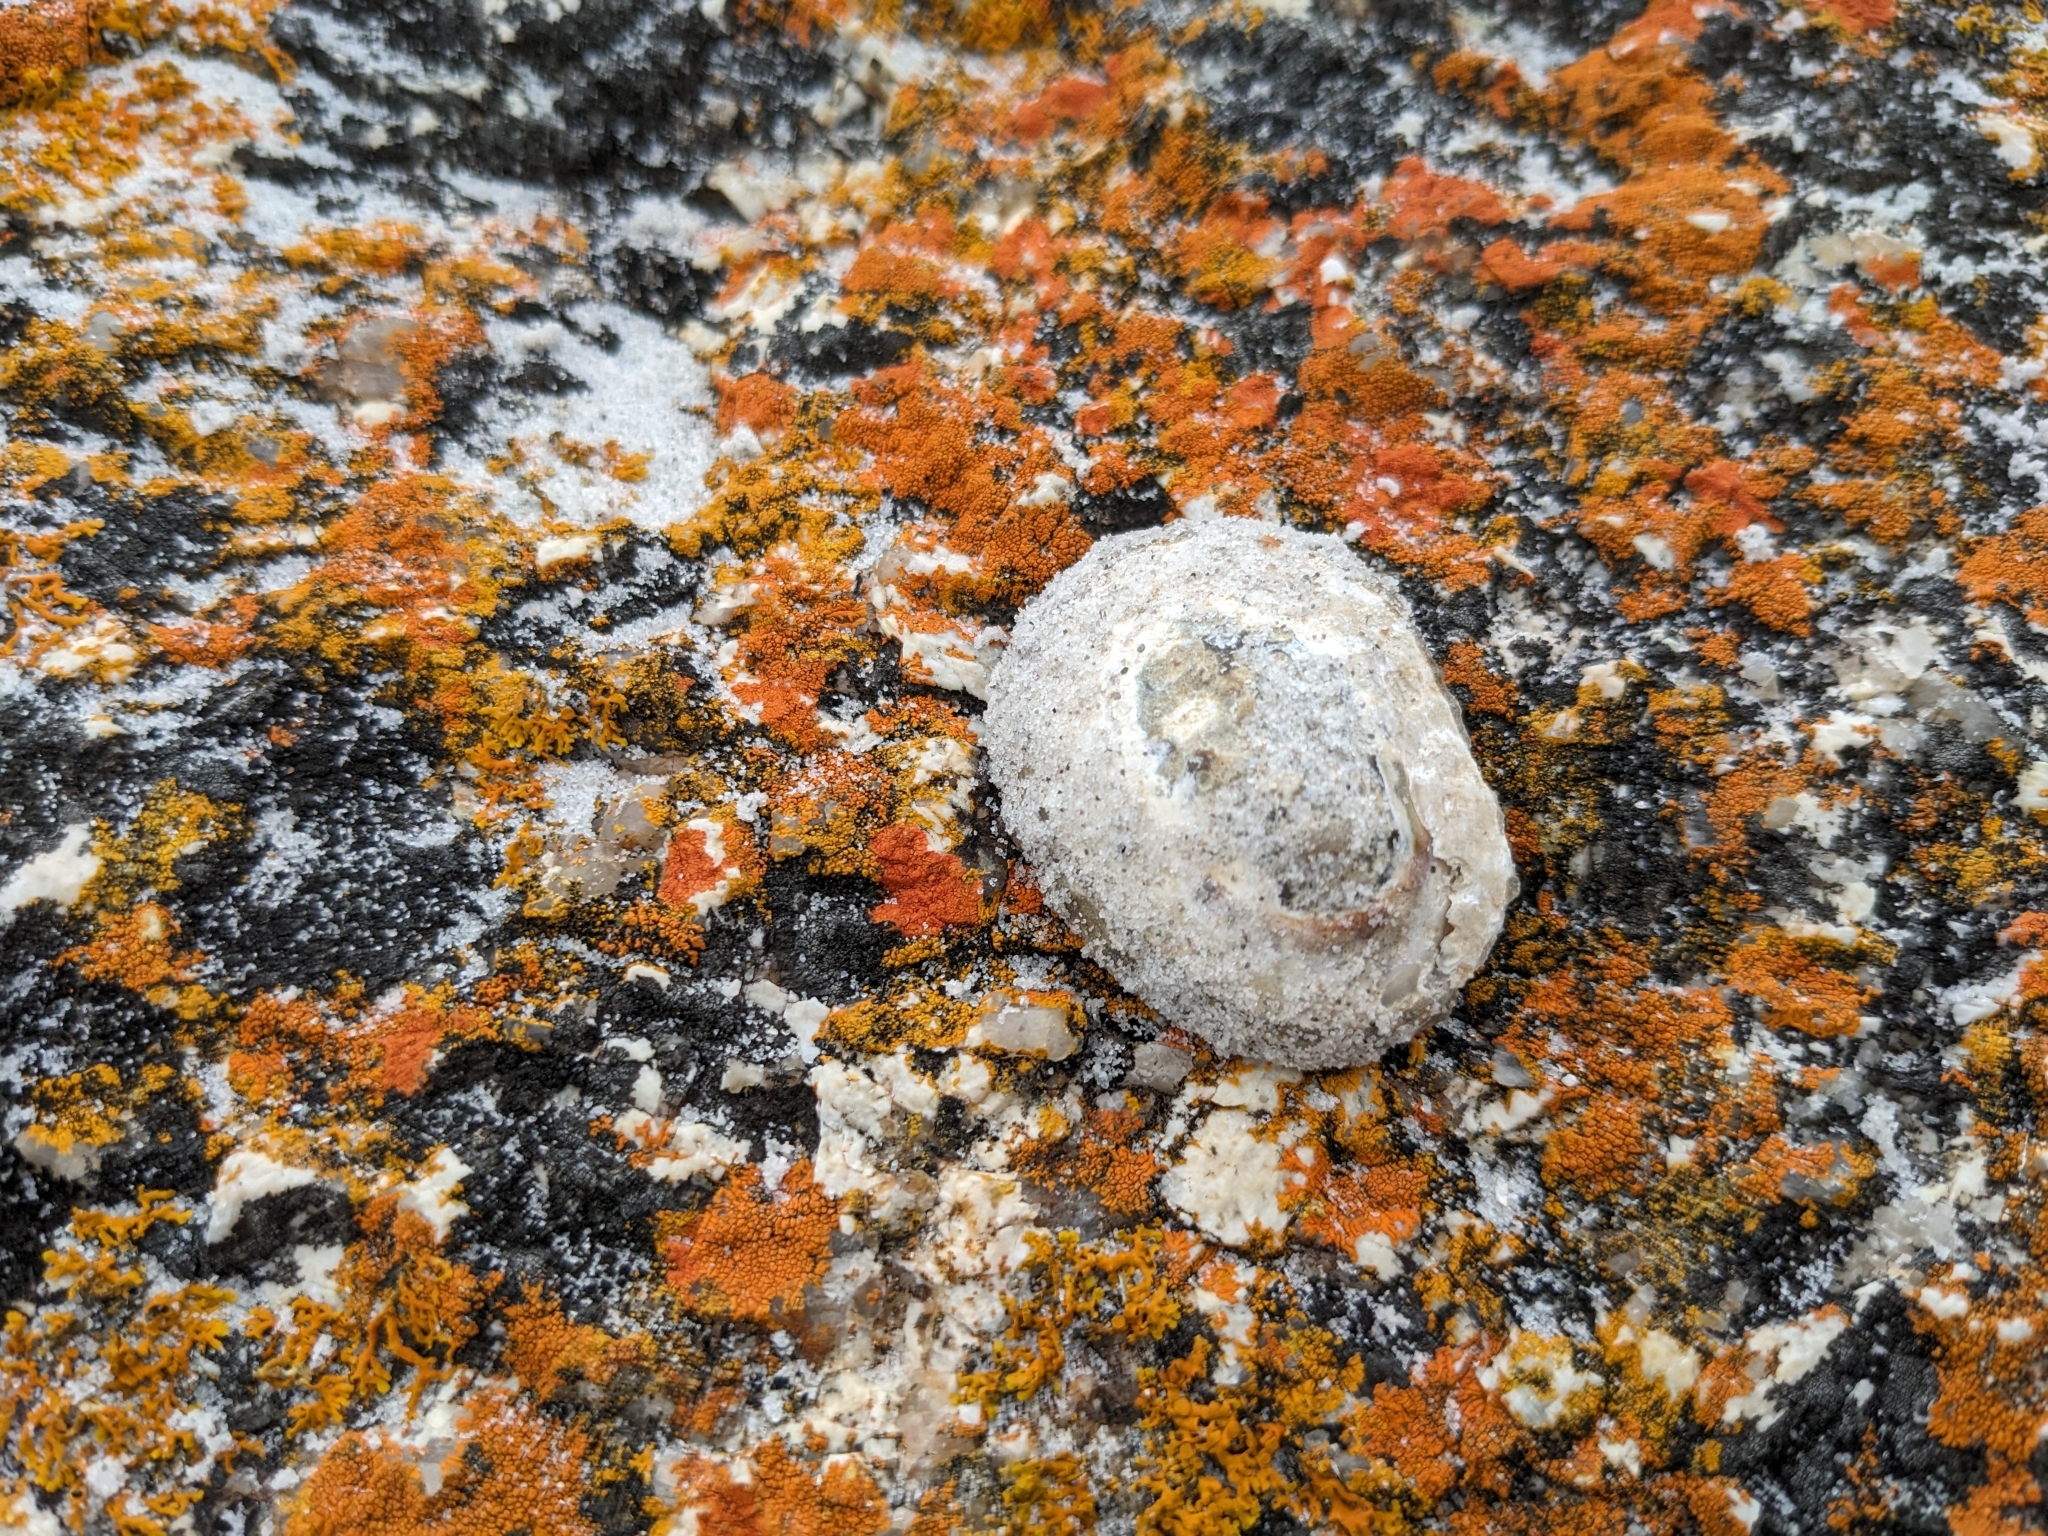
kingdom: Animalia
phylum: Mollusca
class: Gastropoda
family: Nacellidae
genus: Cellana
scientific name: Cellana solida
